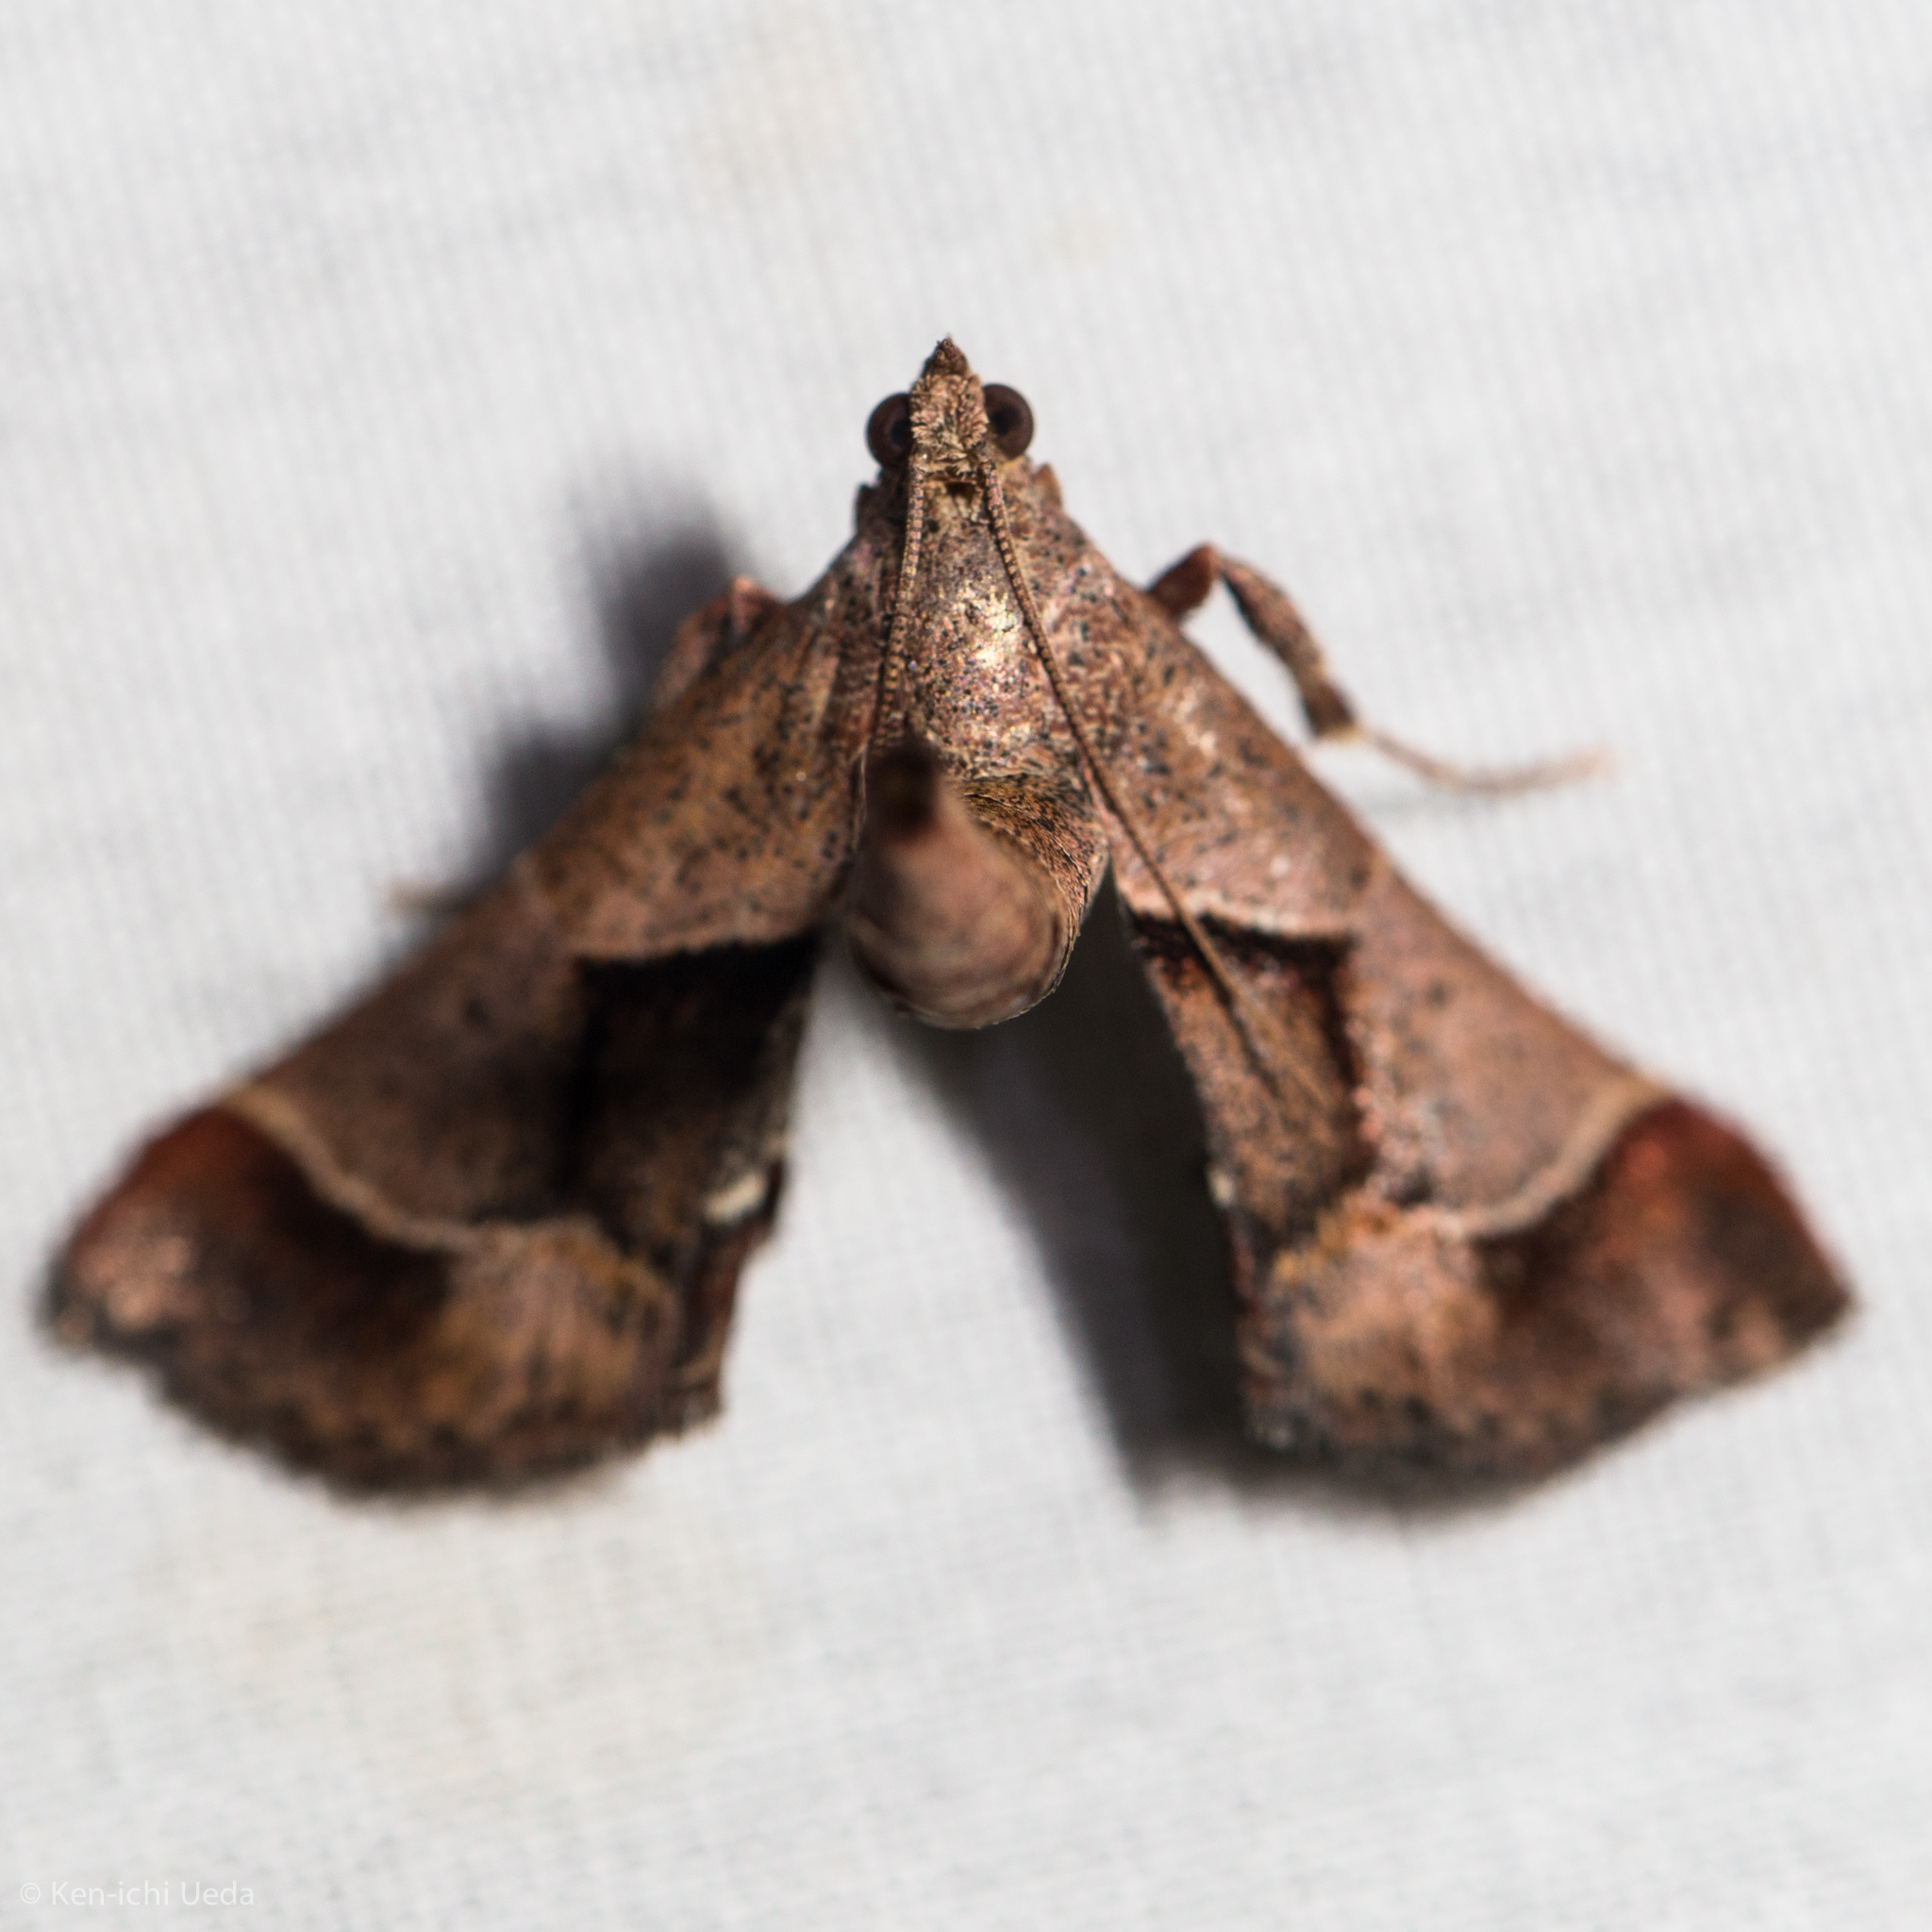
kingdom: Animalia
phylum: Arthropoda
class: Insecta
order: Lepidoptera
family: Pyralidae
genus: Gauna
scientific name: Gauna aegusalis
